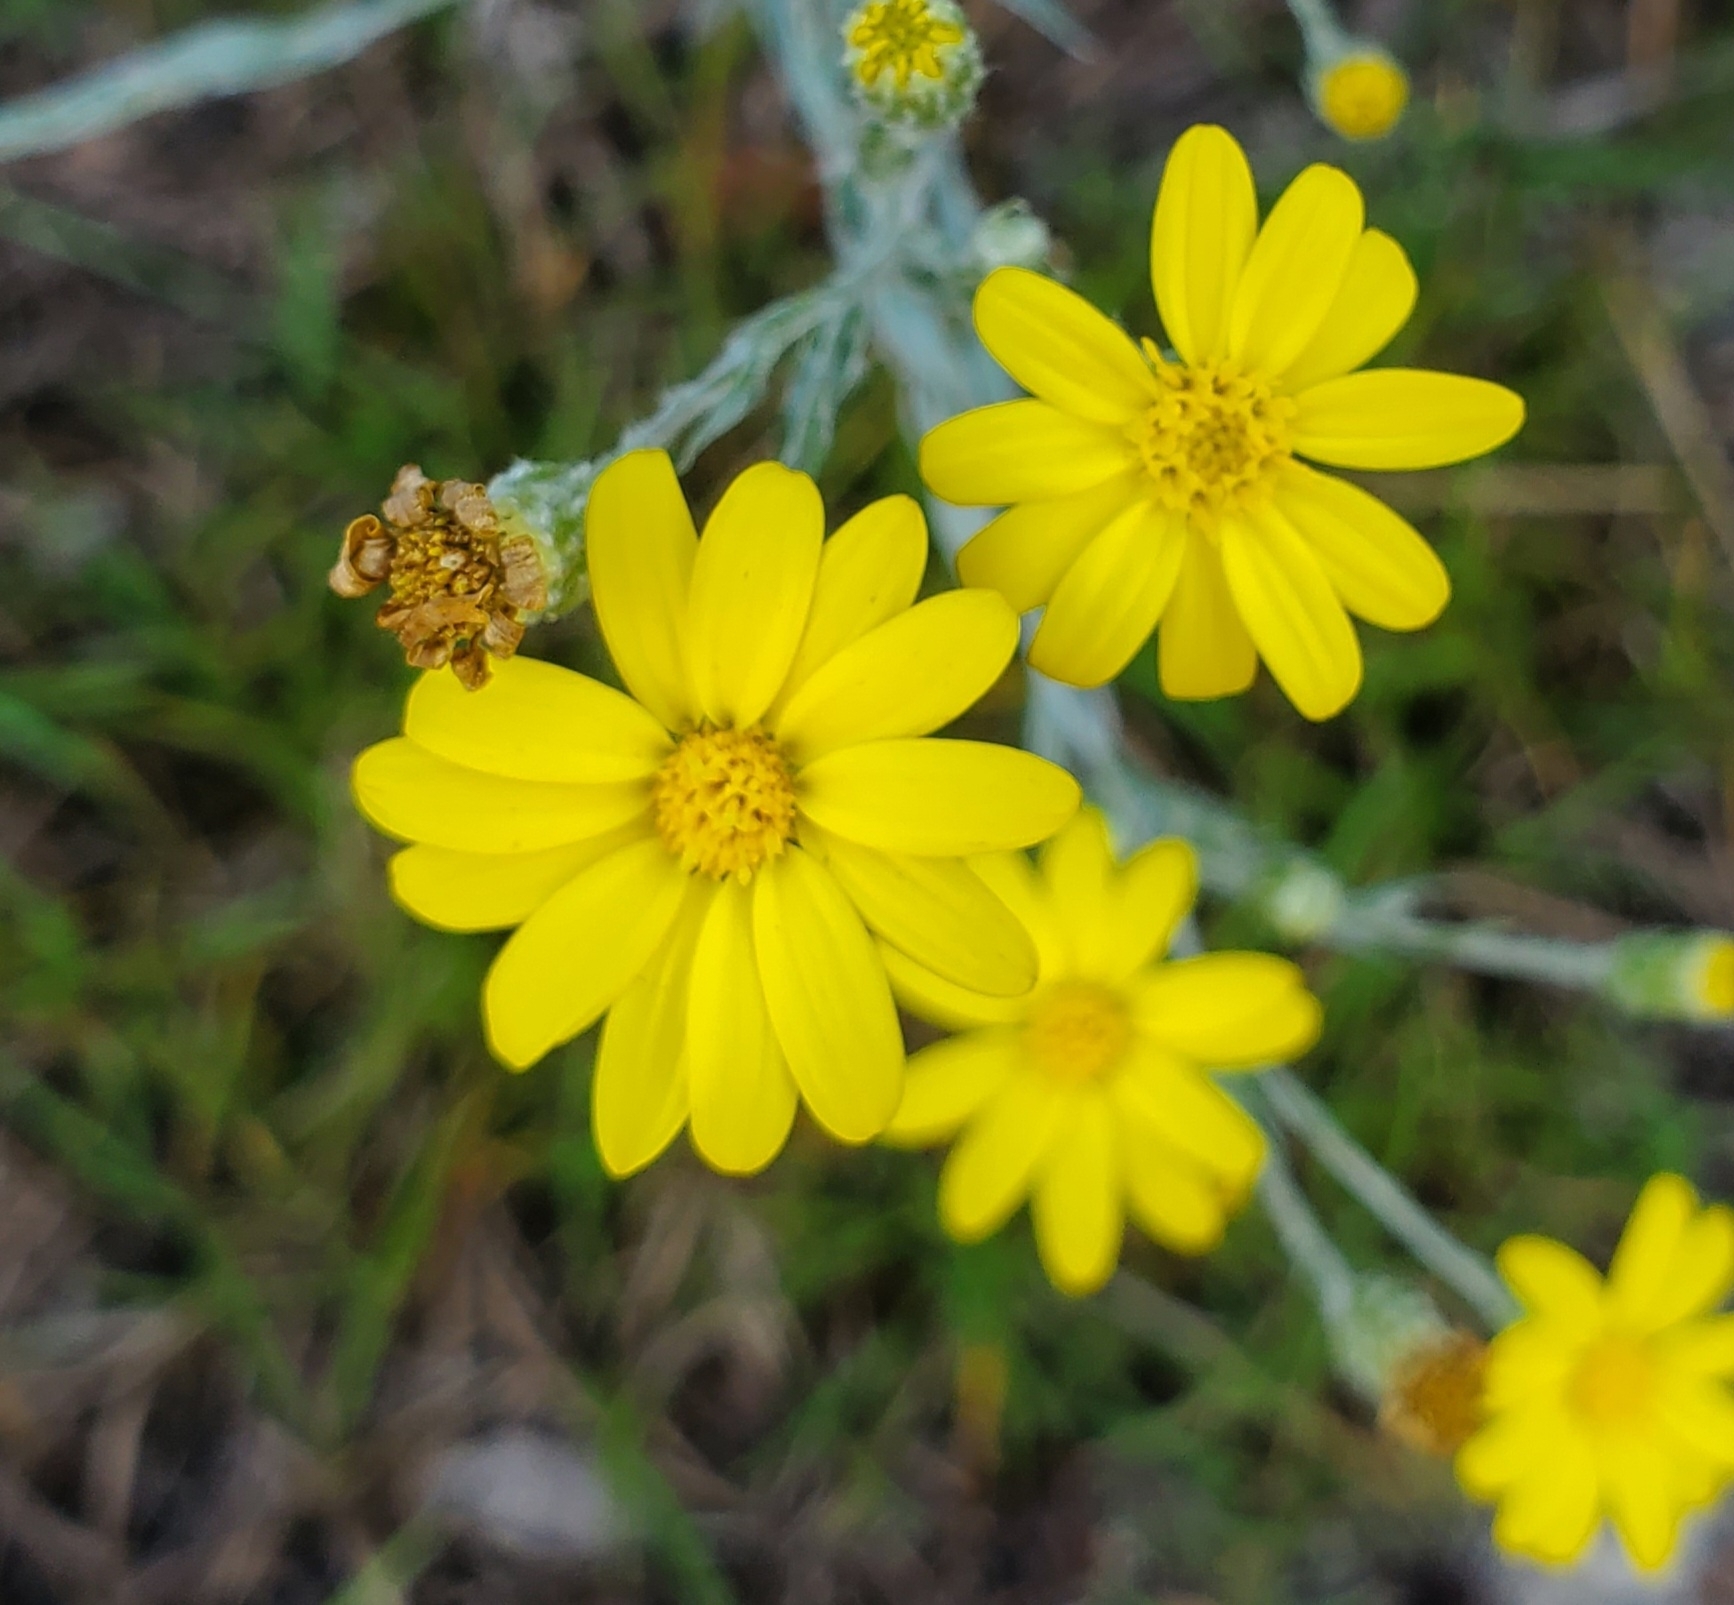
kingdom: Plantae
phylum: Tracheophyta
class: Magnoliopsida
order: Asterales
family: Asteraceae
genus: Pityopsis
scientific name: Pityopsis aequilifolia
